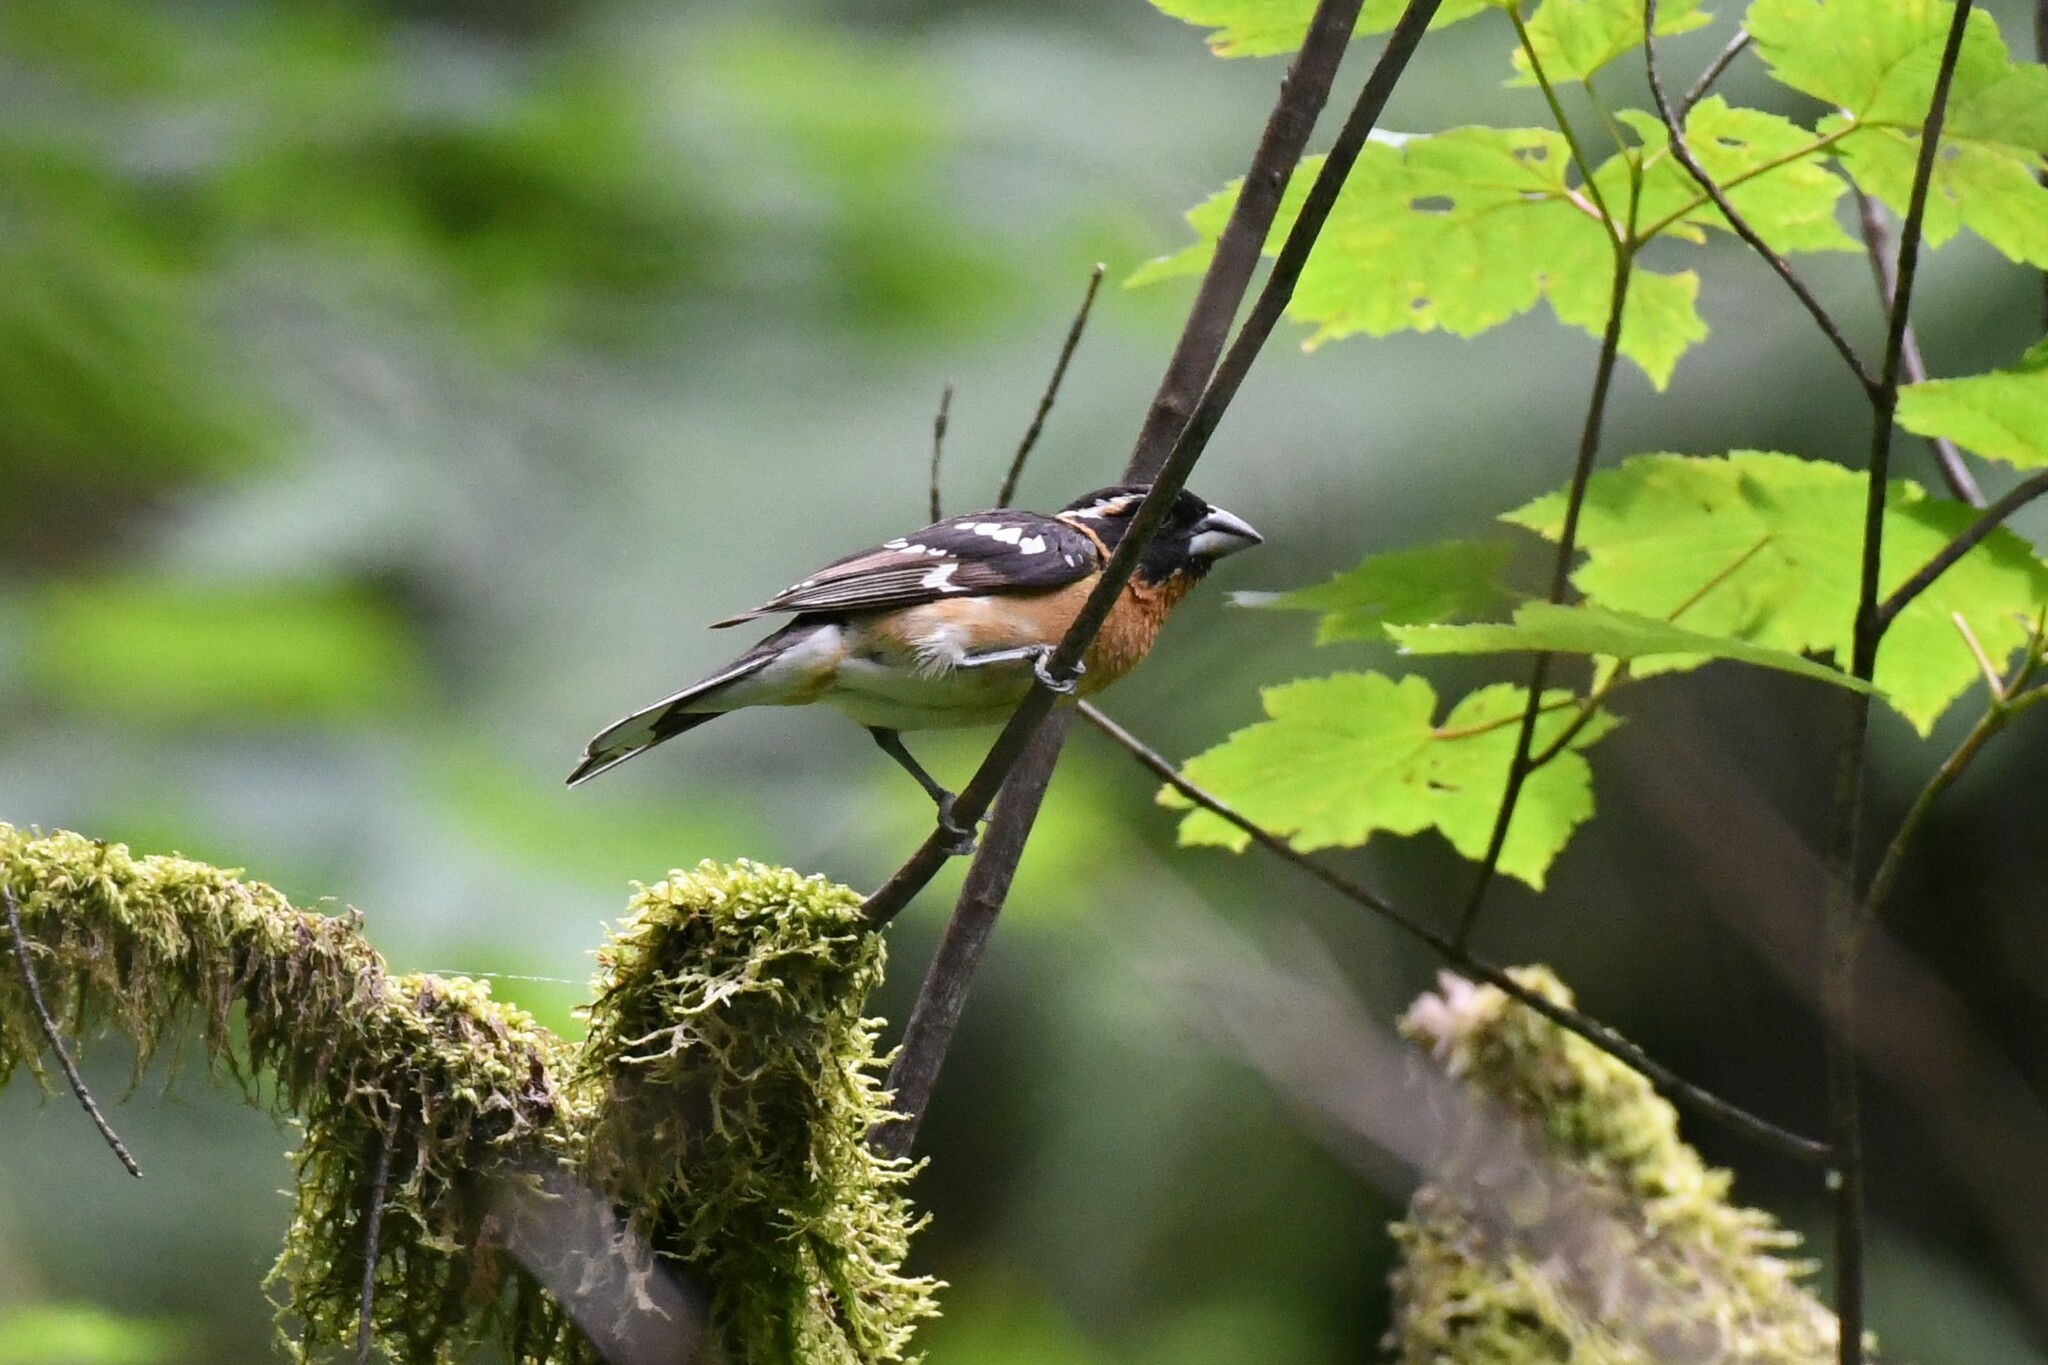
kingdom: Animalia
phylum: Chordata
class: Aves
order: Passeriformes
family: Cardinalidae
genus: Pheucticus
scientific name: Pheucticus melanocephalus
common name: Black-headed grosbeak
